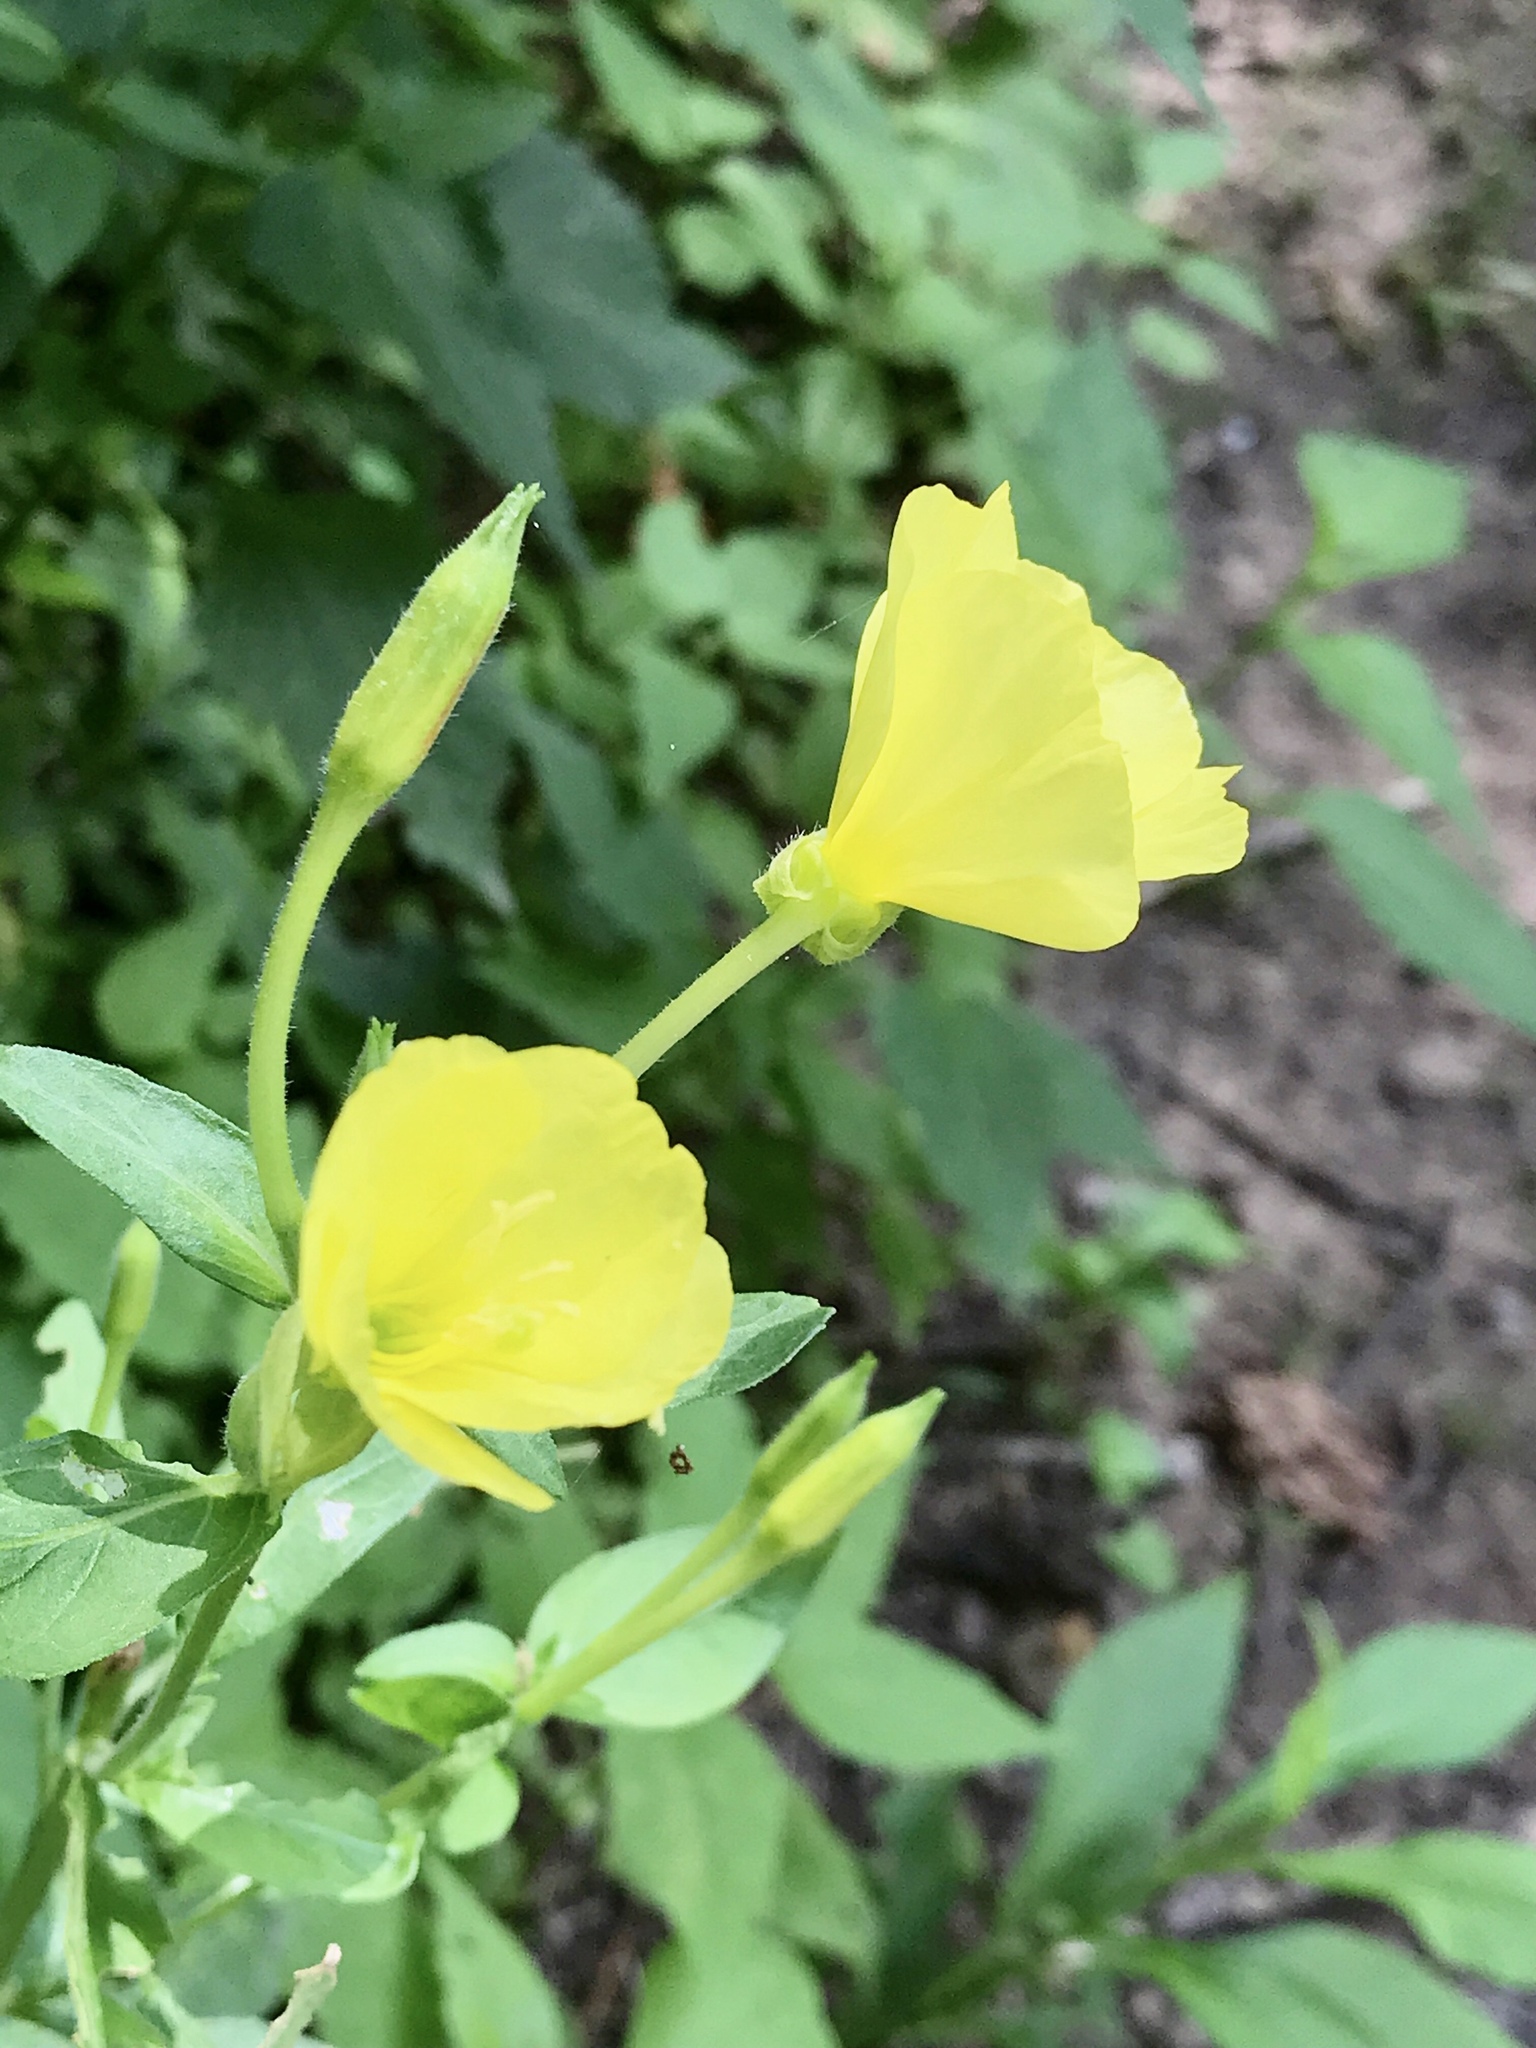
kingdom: Plantae
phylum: Tracheophyta
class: Magnoliopsida
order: Myrtales
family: Onagraceae
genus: Oenothera
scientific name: Oenothera biennis
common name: Common evening-primrose
